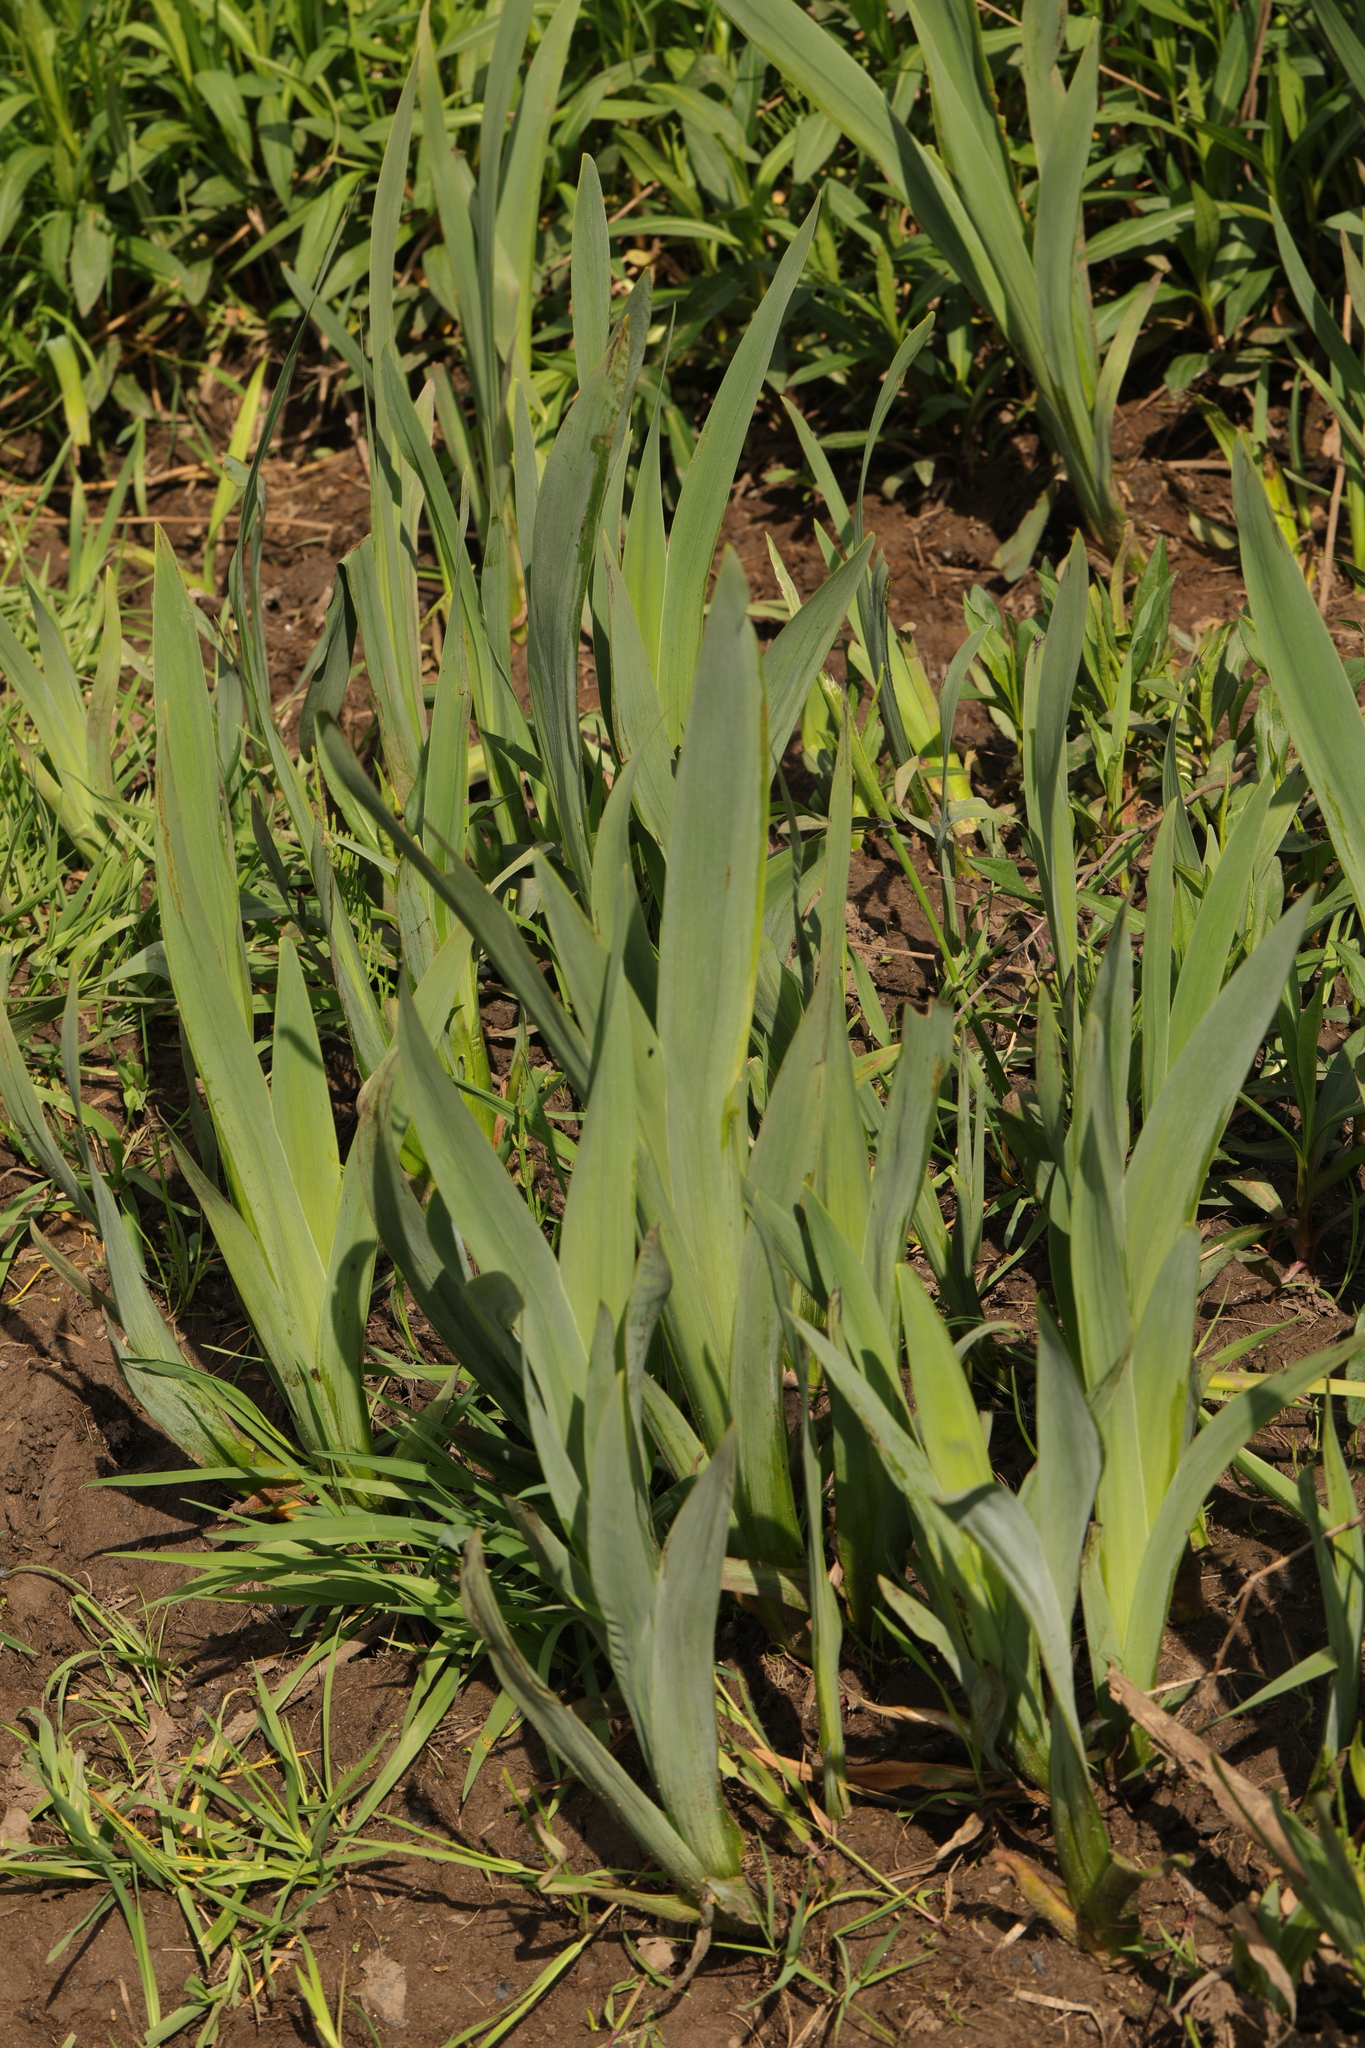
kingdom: Plantae
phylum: Tracheophyta
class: Liliopsida
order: Asparagales
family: Iridaceae
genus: Iris
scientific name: Iris pseudacorus
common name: Yellow flag
